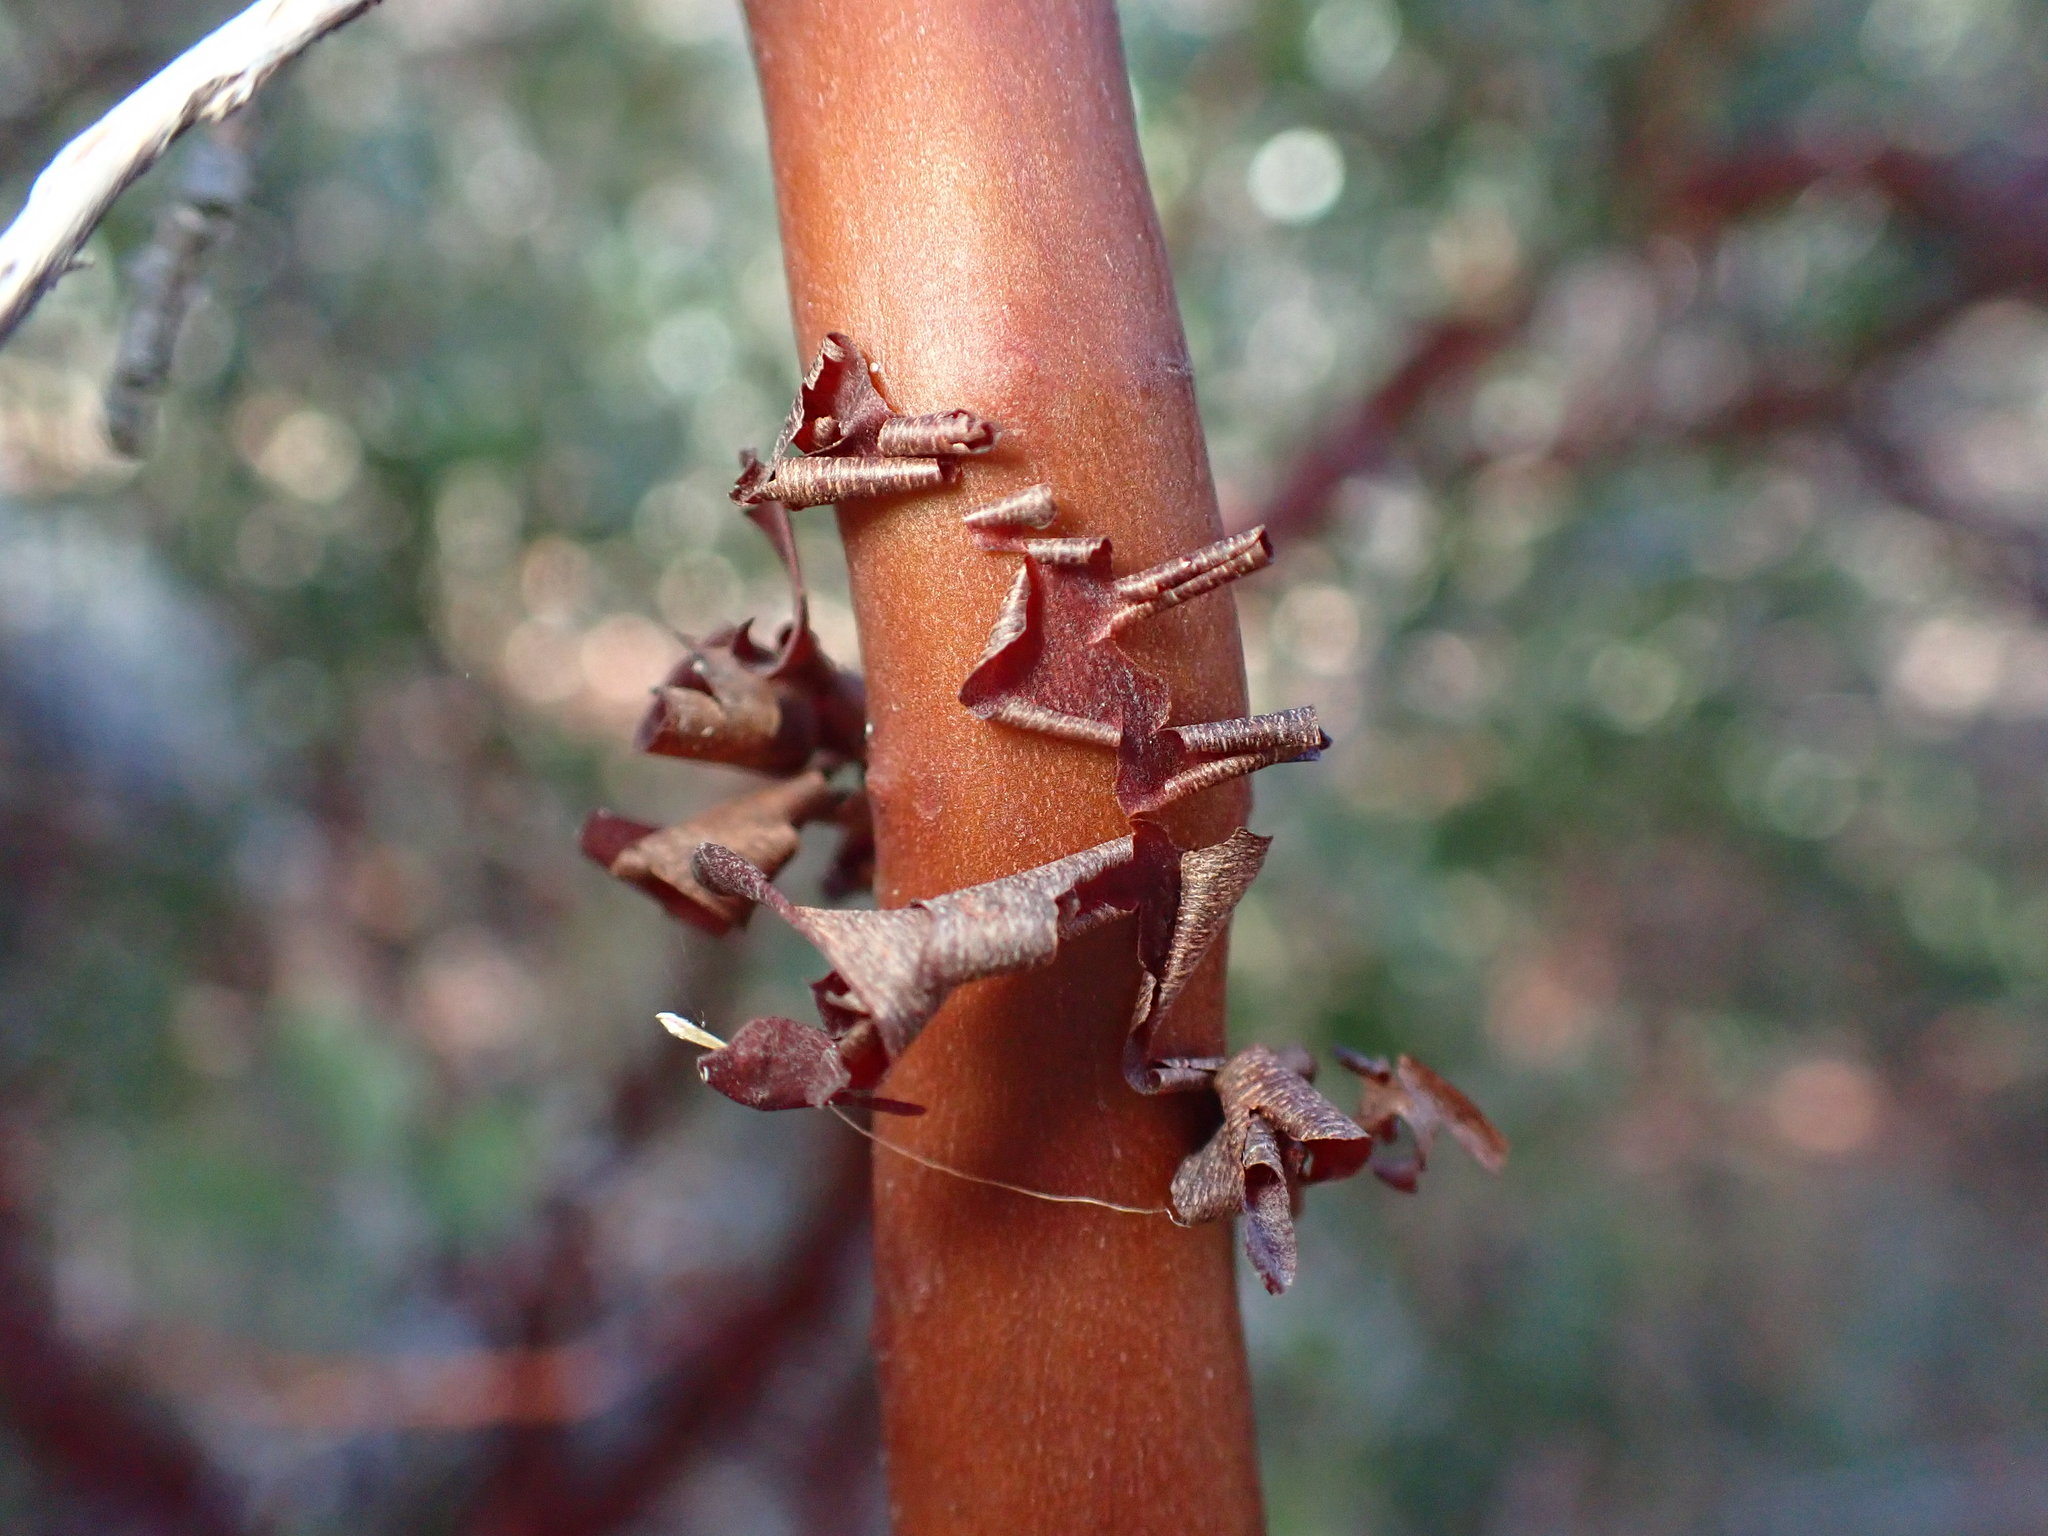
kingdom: Plantae
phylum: Tracheophyta
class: Magnoliopsida
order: Ericales
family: Ericaceae
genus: Arctostaphylos
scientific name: Arctostaphylos pungens
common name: Mexican manzanita
